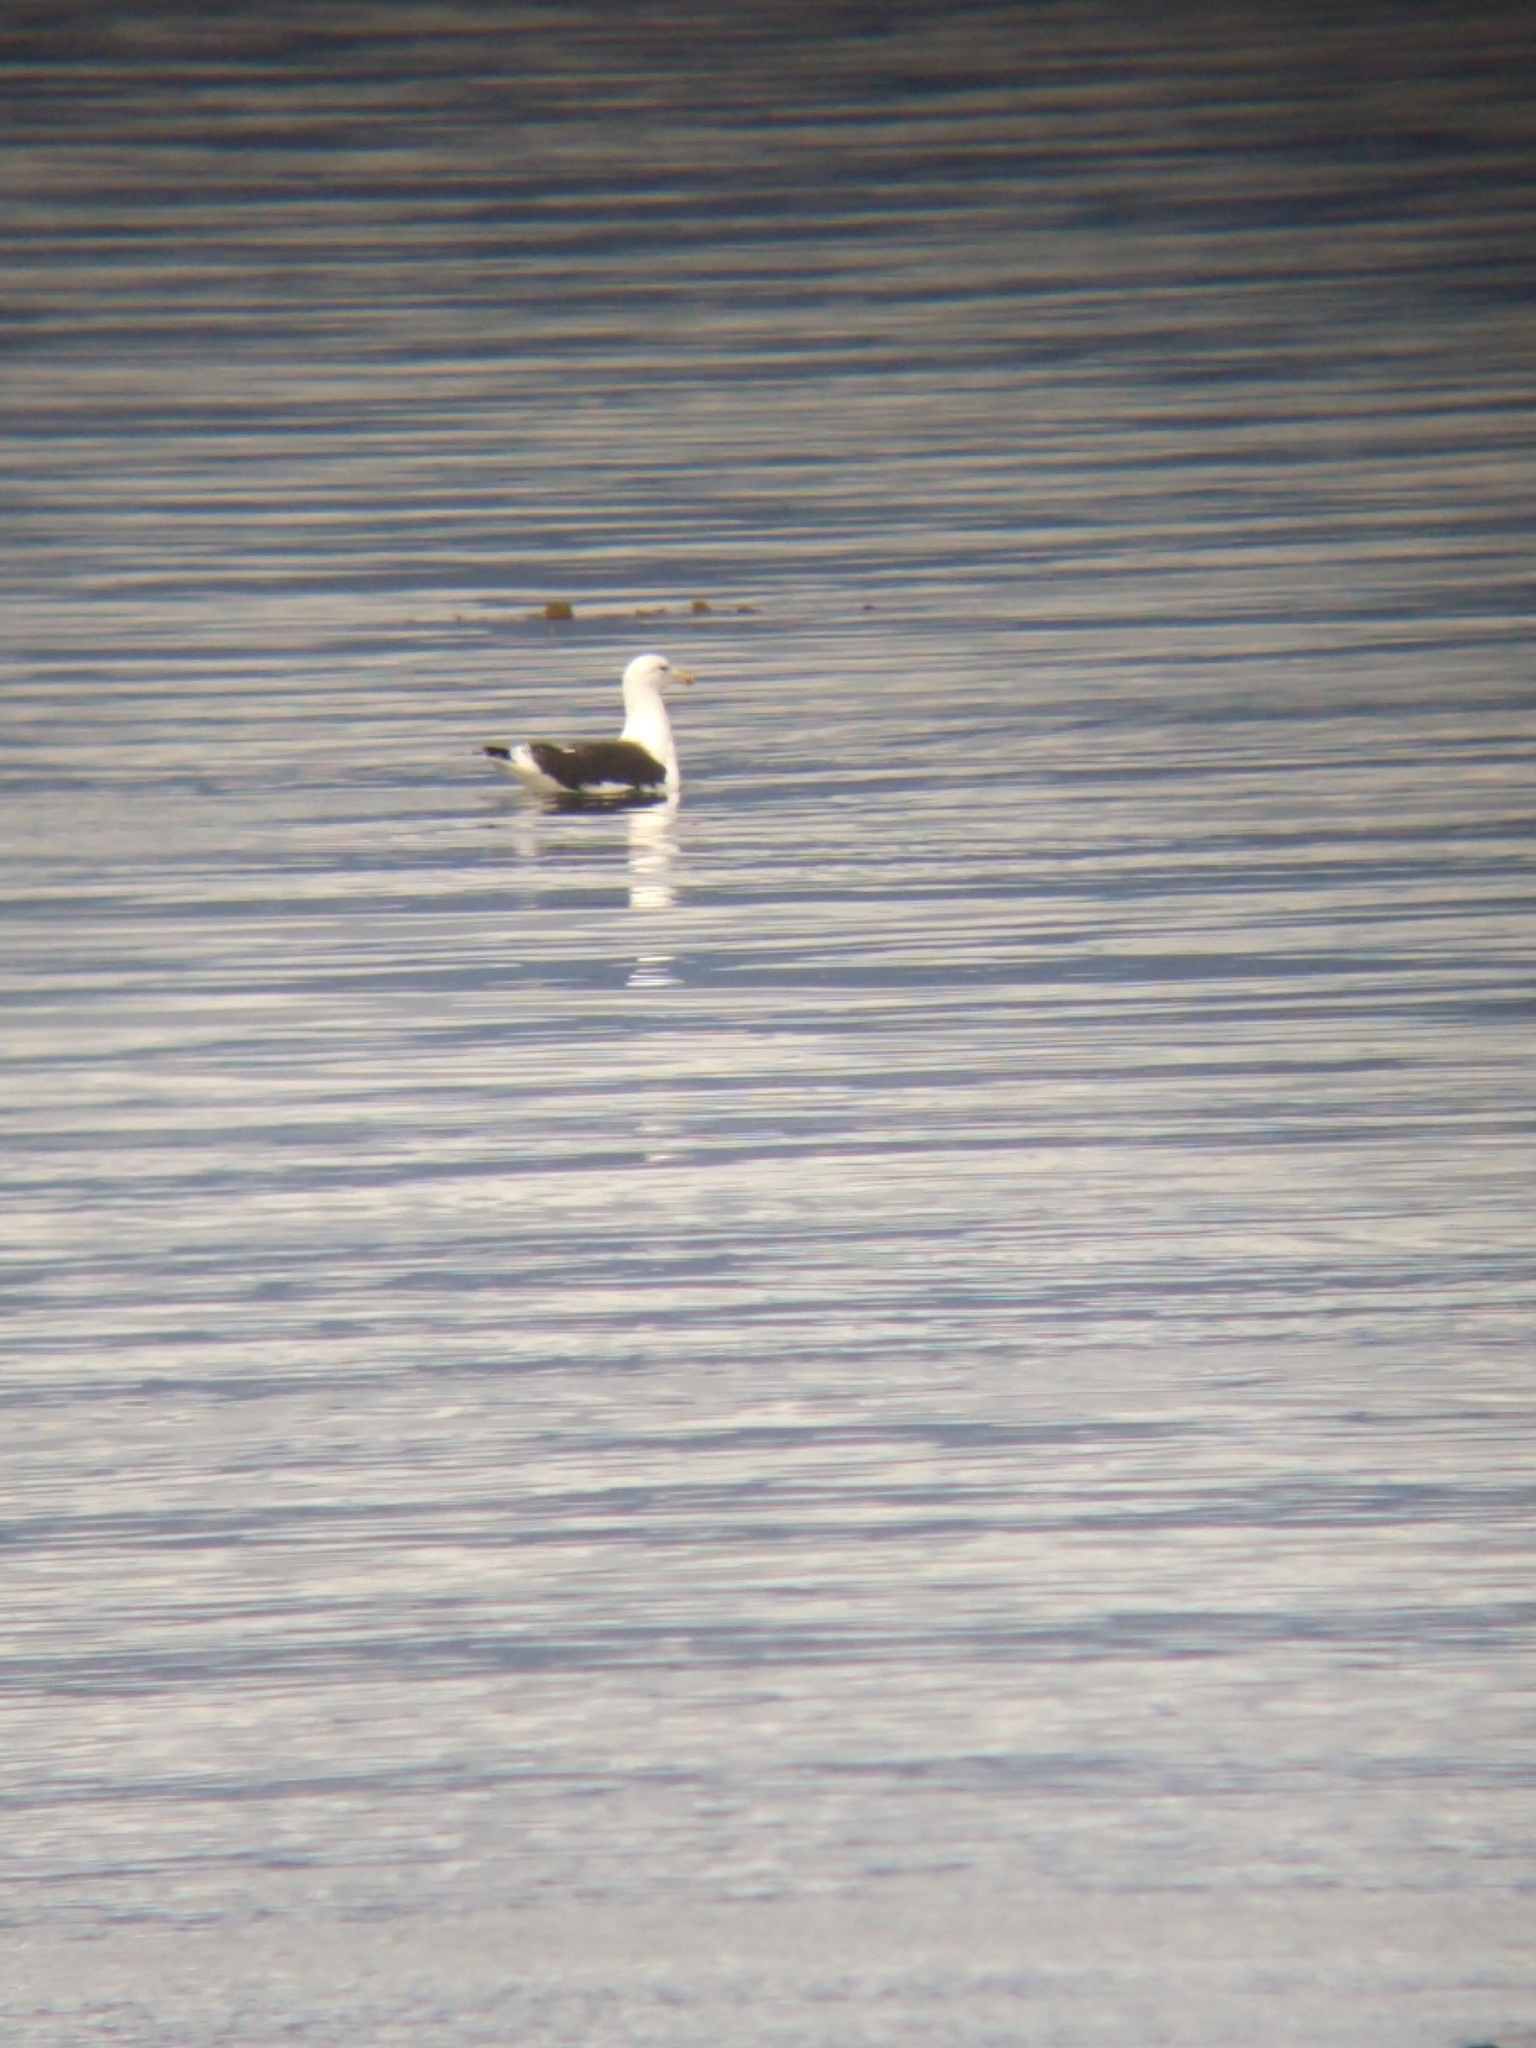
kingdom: Animalia
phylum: Chordata
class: Aves
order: Charadriiformes
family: Laridae
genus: Larus
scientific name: Larus dominicanus
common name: Kelp gull
